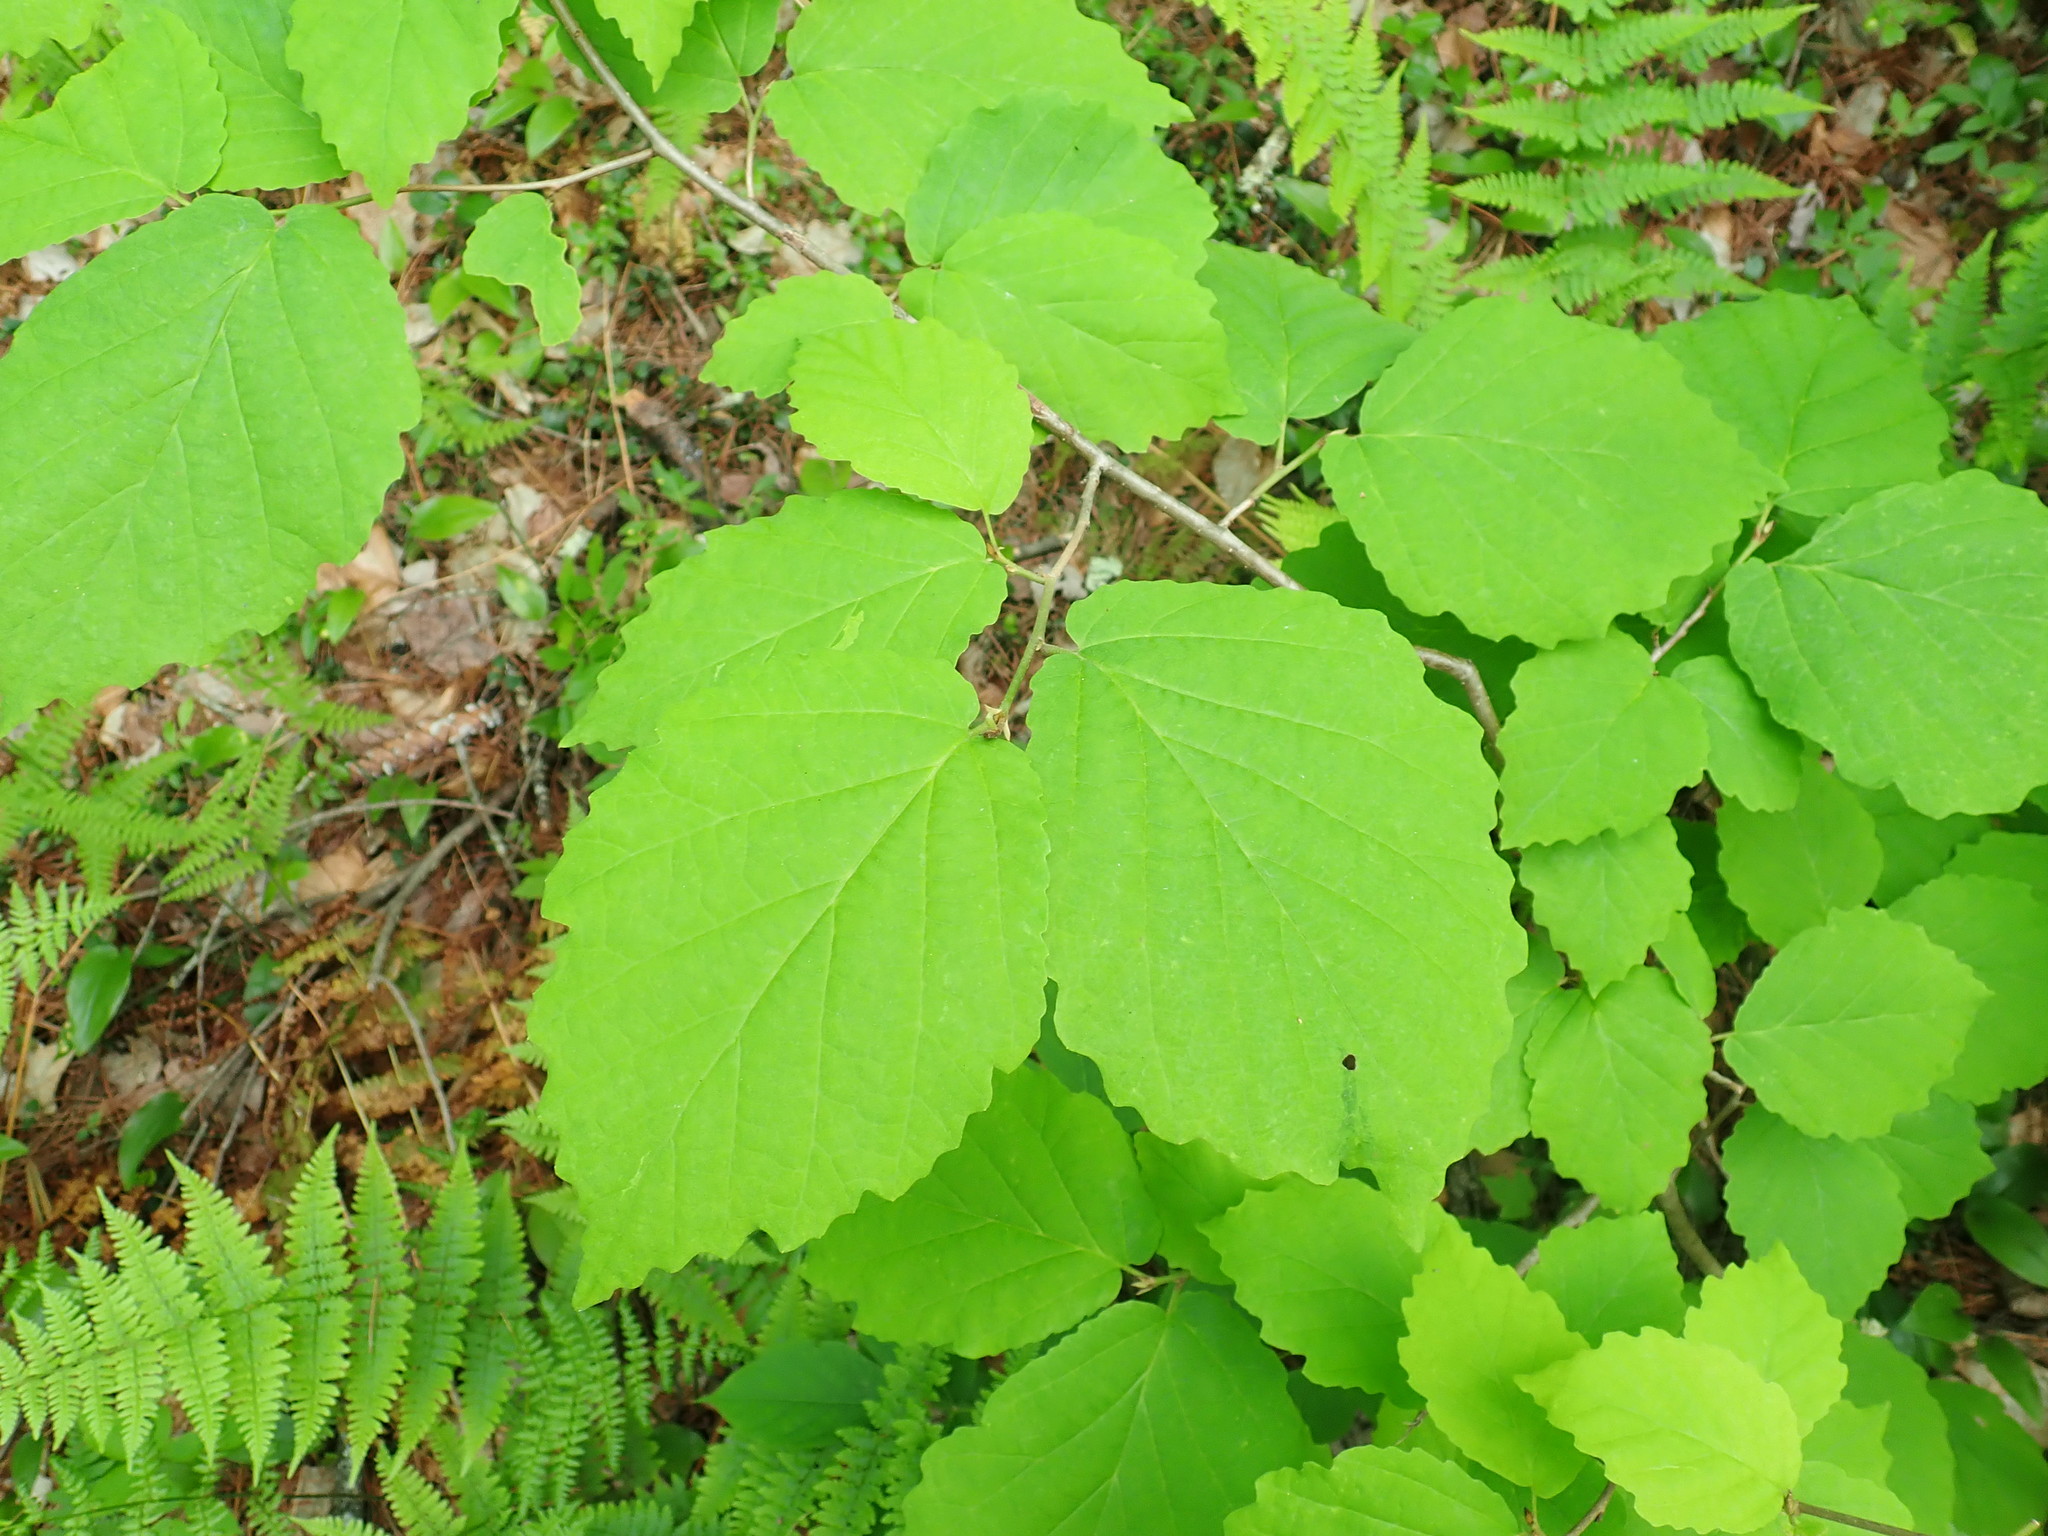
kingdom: Plantae
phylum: Tracheophyta
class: Magnoliopsida
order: Saxifragales
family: Hamamelidaceae
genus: Hamamelis
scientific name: Hamamelis virginiana
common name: Witch-hazel
